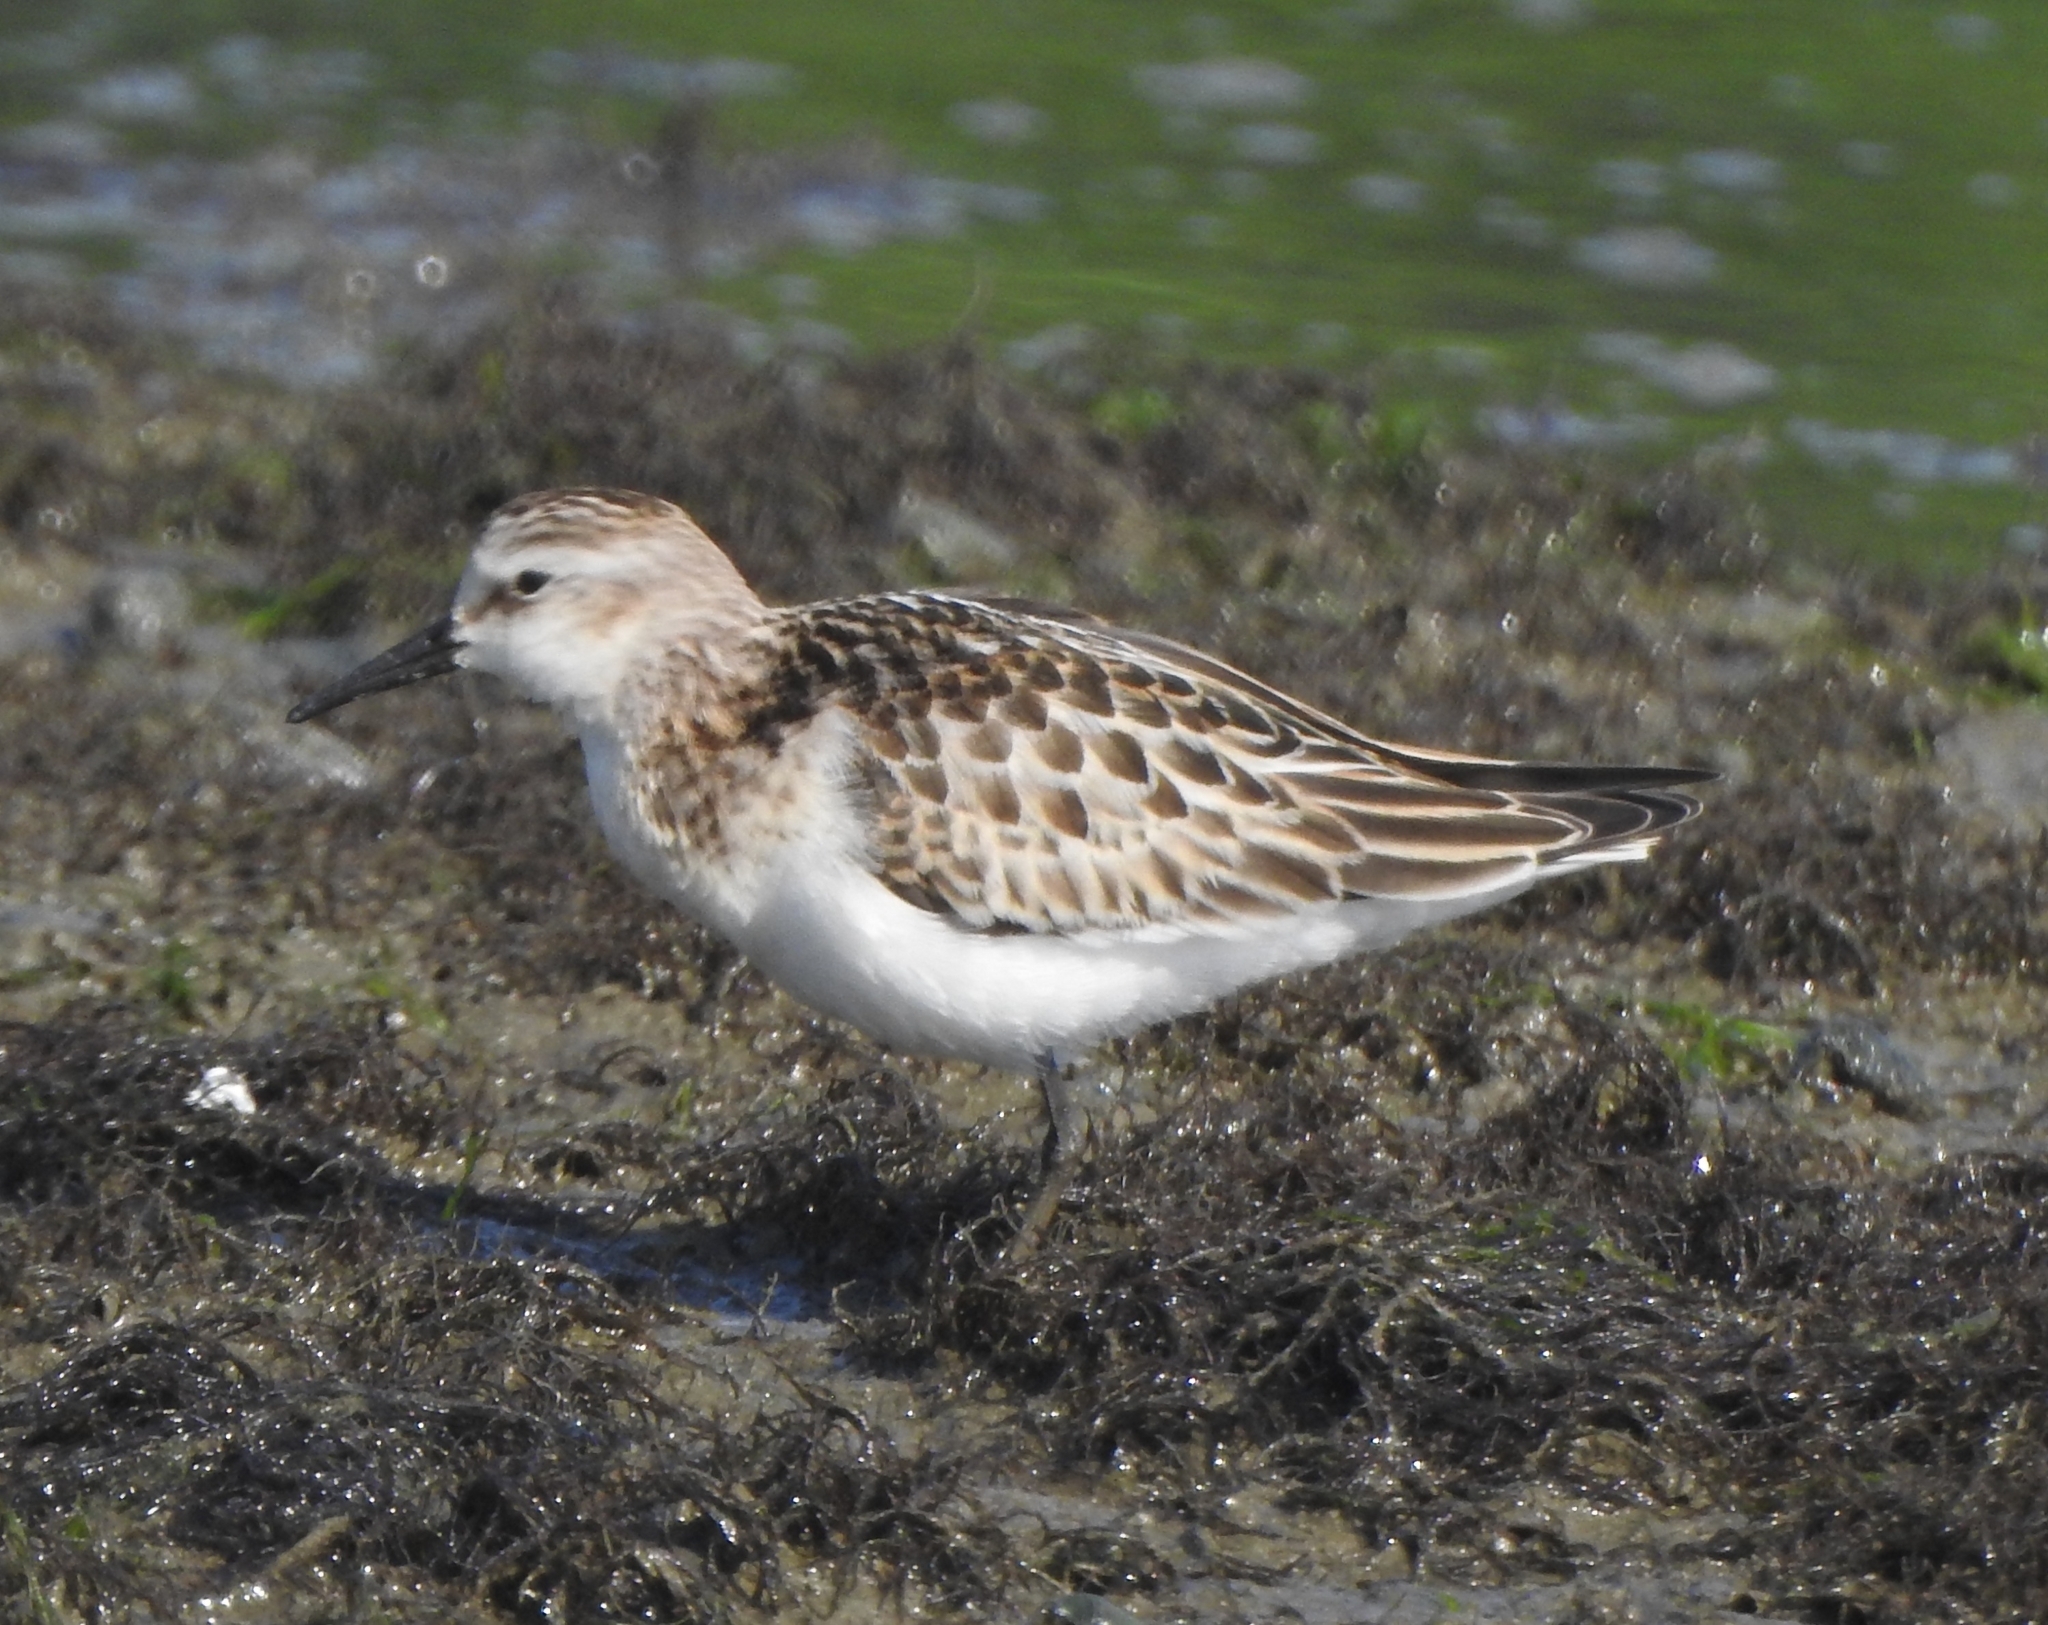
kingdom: Animalia
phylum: Chordata
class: Aves
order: Charadriiformes
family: Scolopacidae
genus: Calidris
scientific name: Calidris minuta
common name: Little stint
